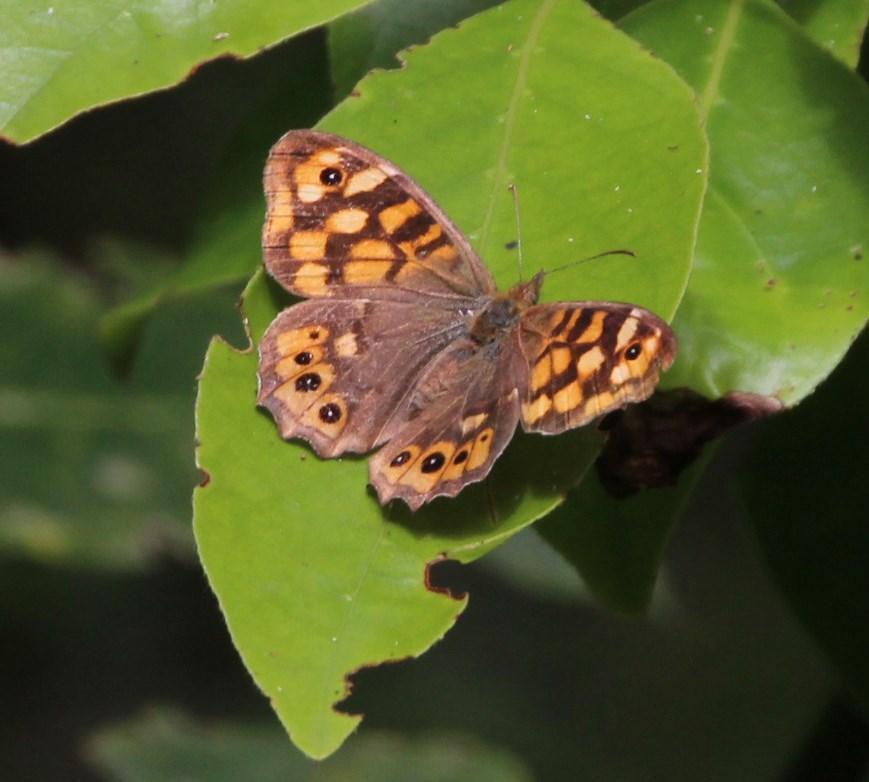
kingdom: Animalia
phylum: Arthropoda
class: Insecta
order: Lepidoptera
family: Nymphalidae
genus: Pararge
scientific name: Pararge aegeria
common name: Speckled wood
